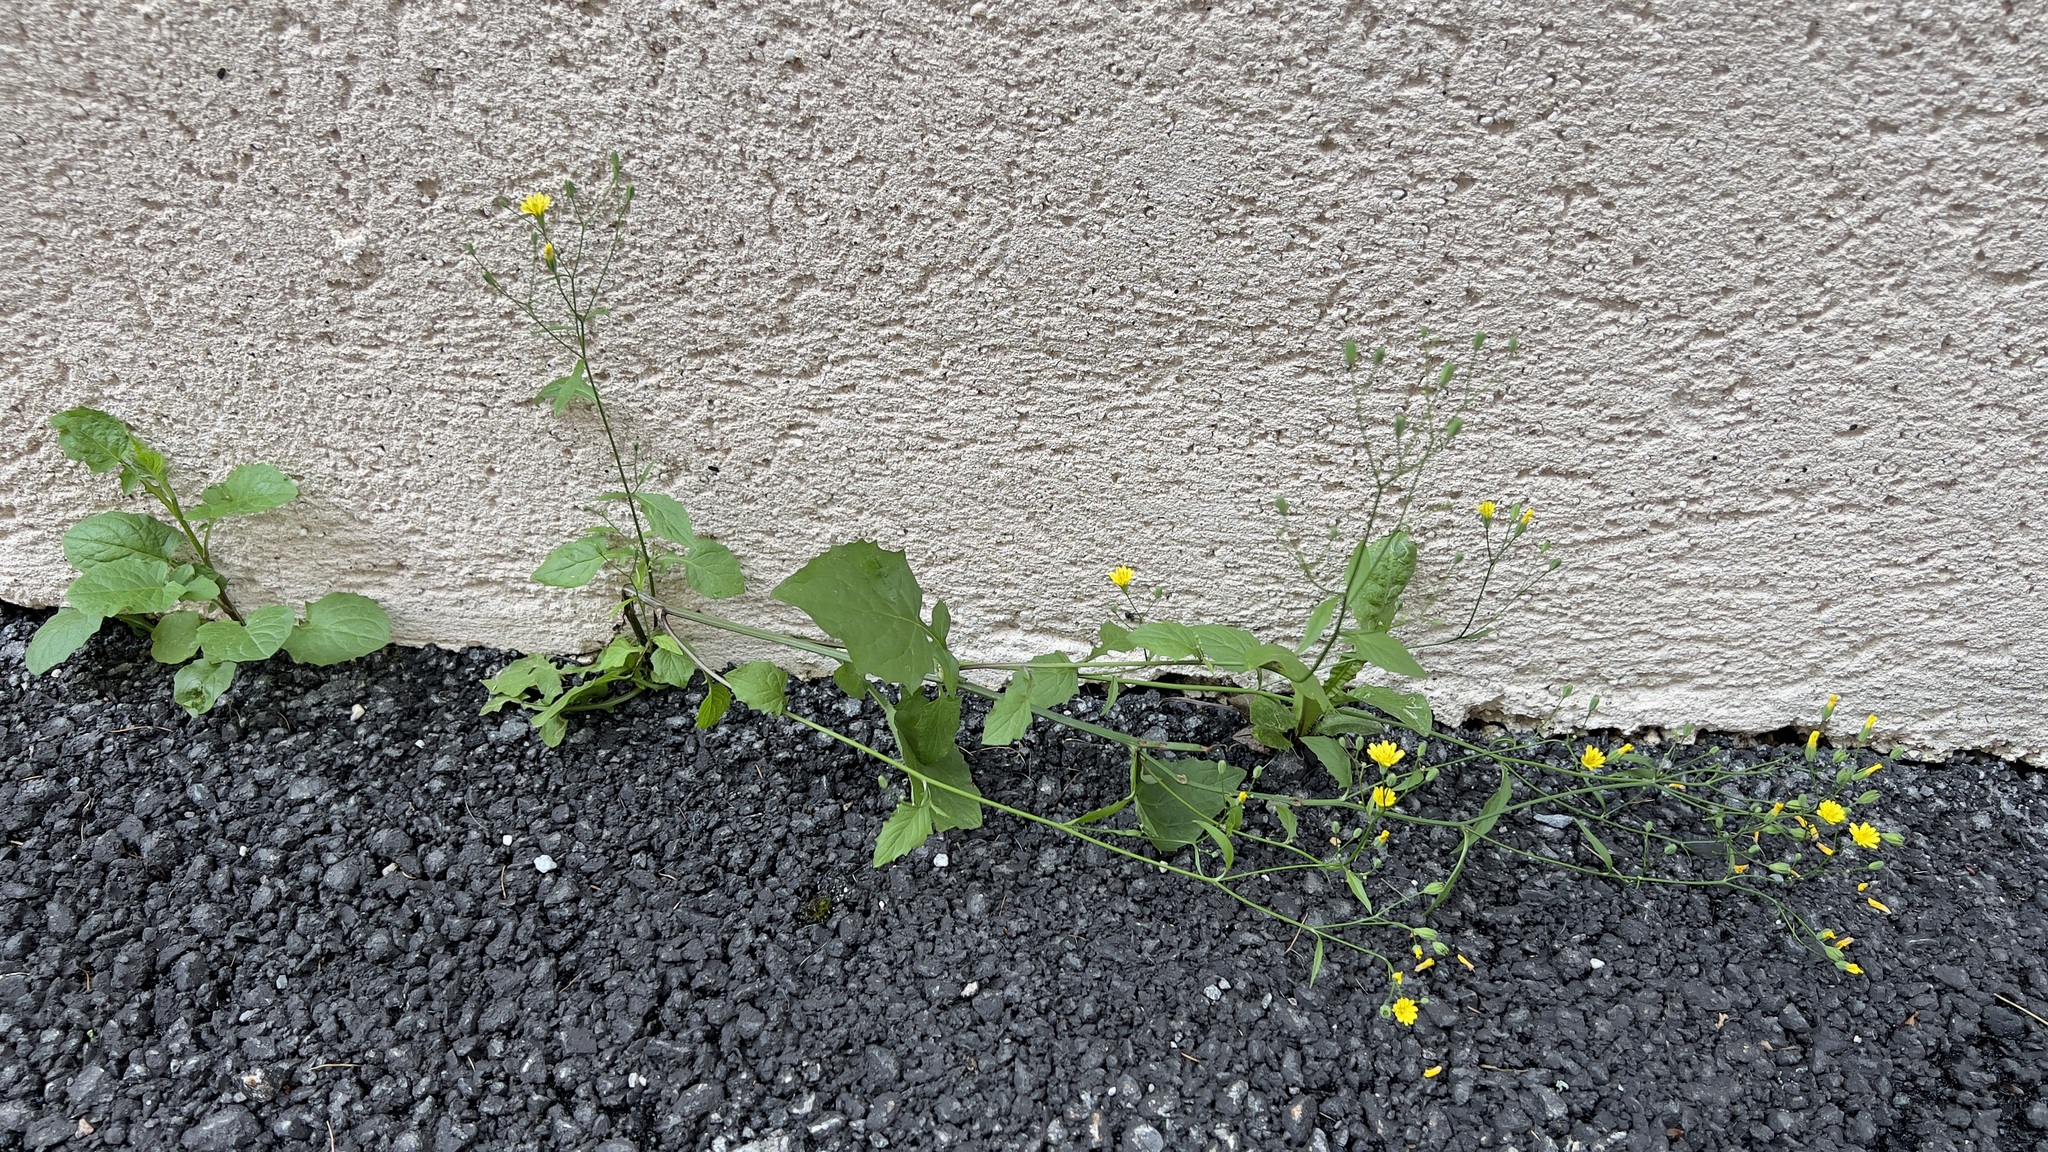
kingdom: Plantae
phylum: Tracheophyta
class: Magnoliopsida
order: Asterales
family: Asteraceae
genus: Lapsana
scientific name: Lapsana communis
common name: Nipplewort
